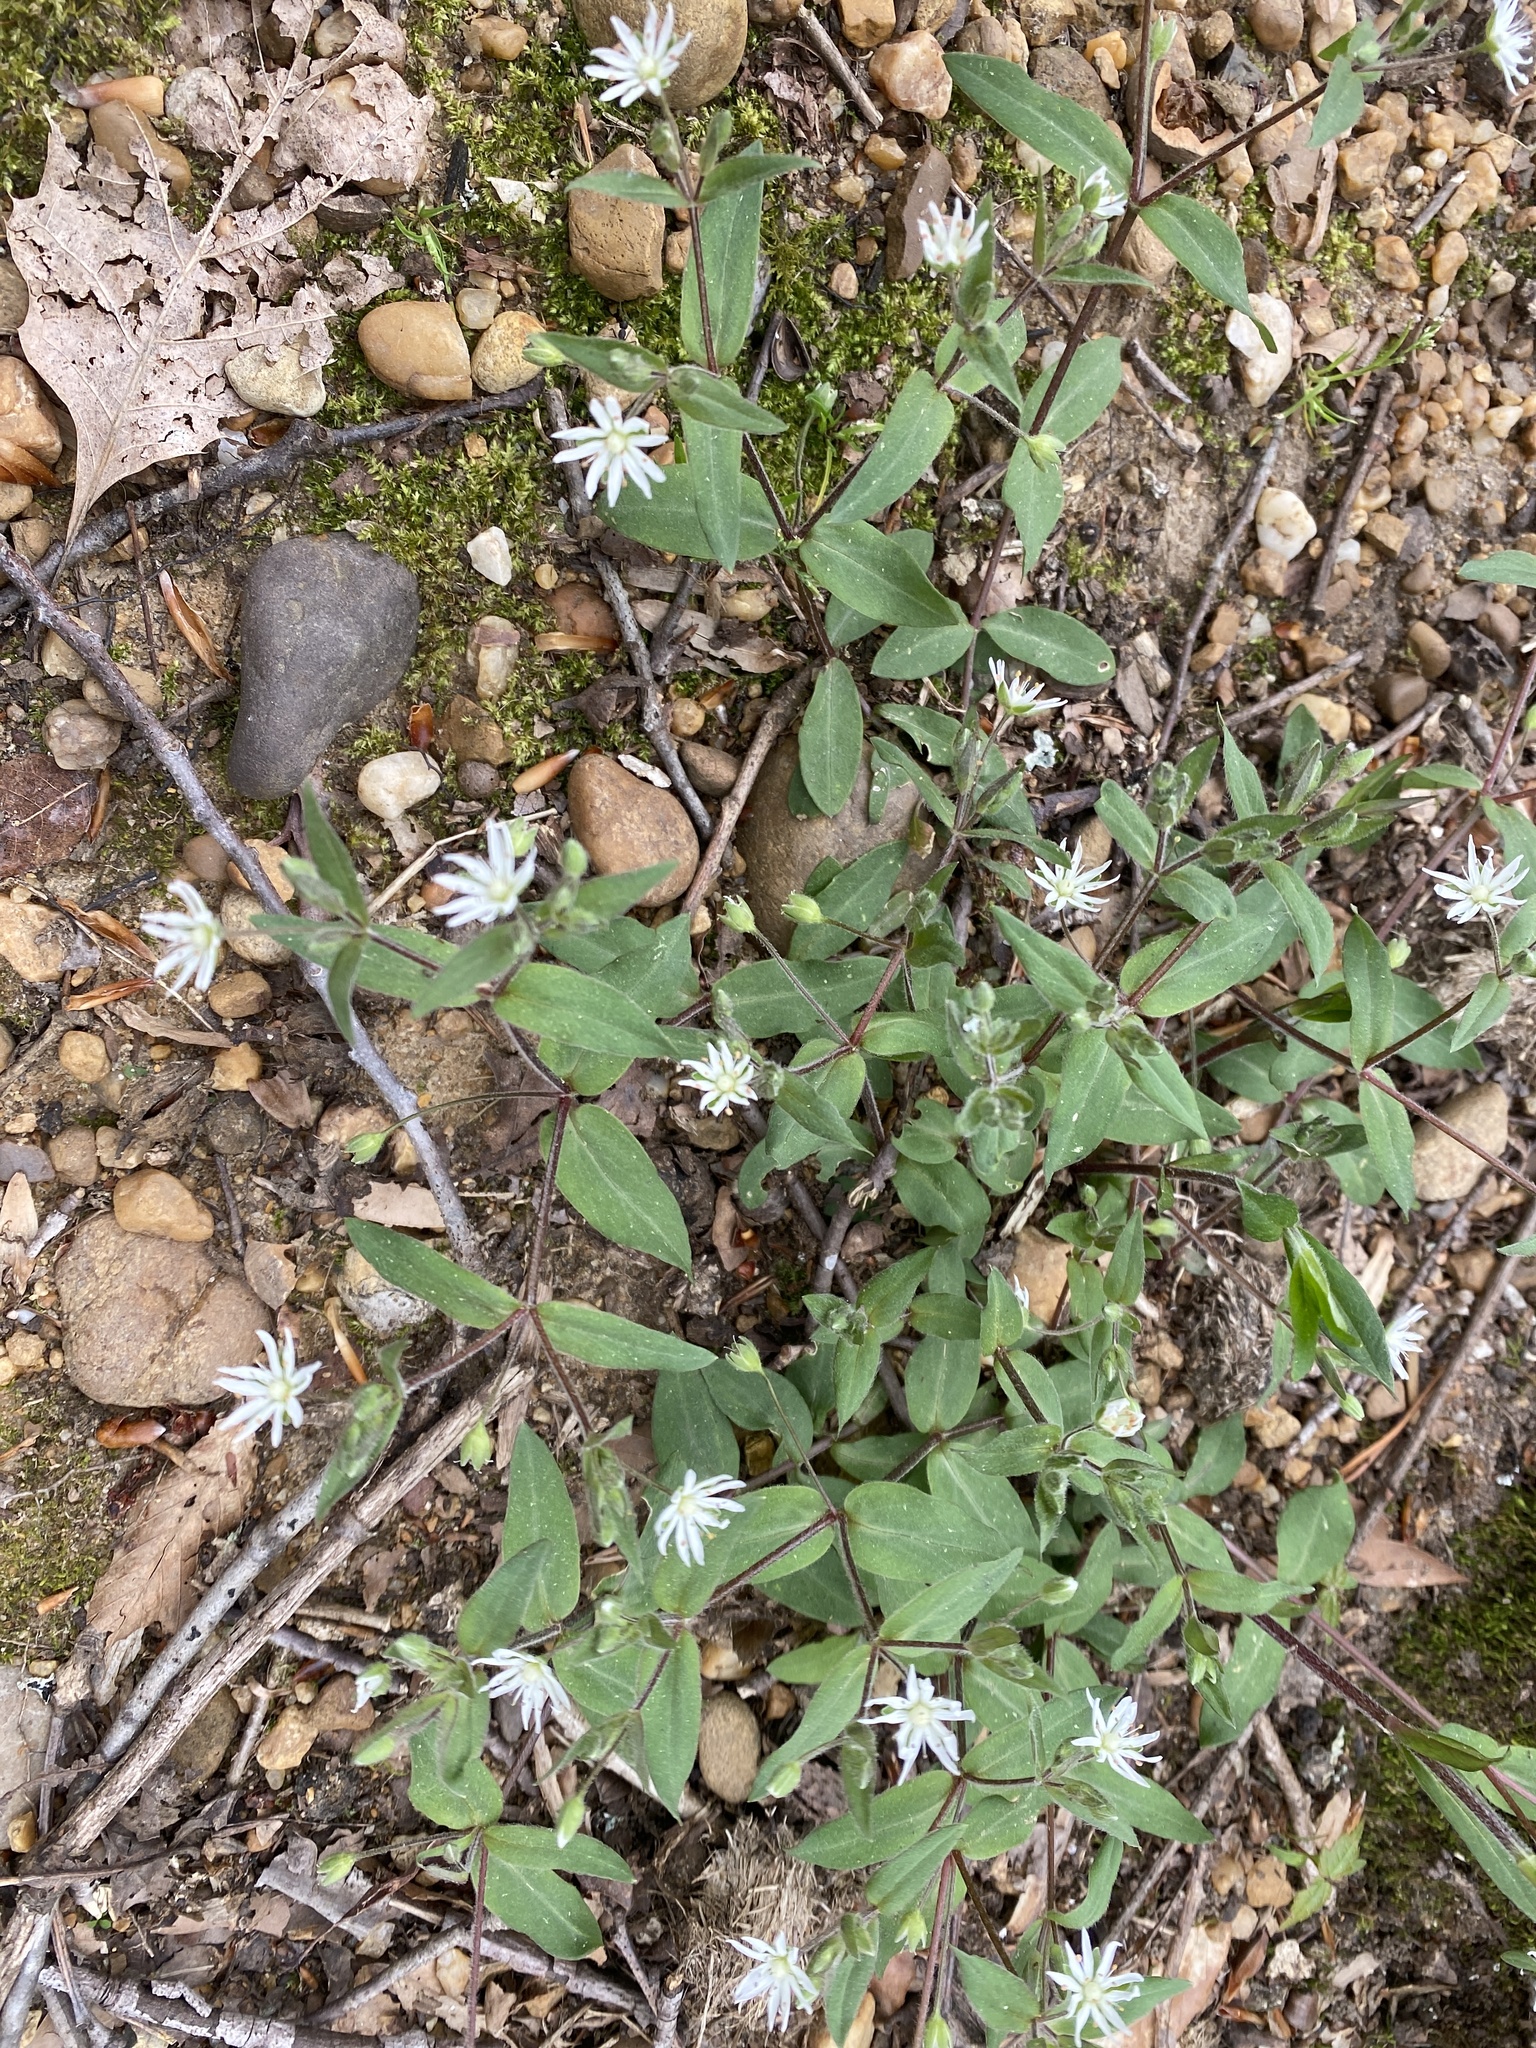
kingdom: Plantae
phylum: Tracheophyta
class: Magnoliopsida
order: Caryophyllales
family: Caryophyllaceae
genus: Stellaria
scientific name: Stellaria pubera
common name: Star chickweed
